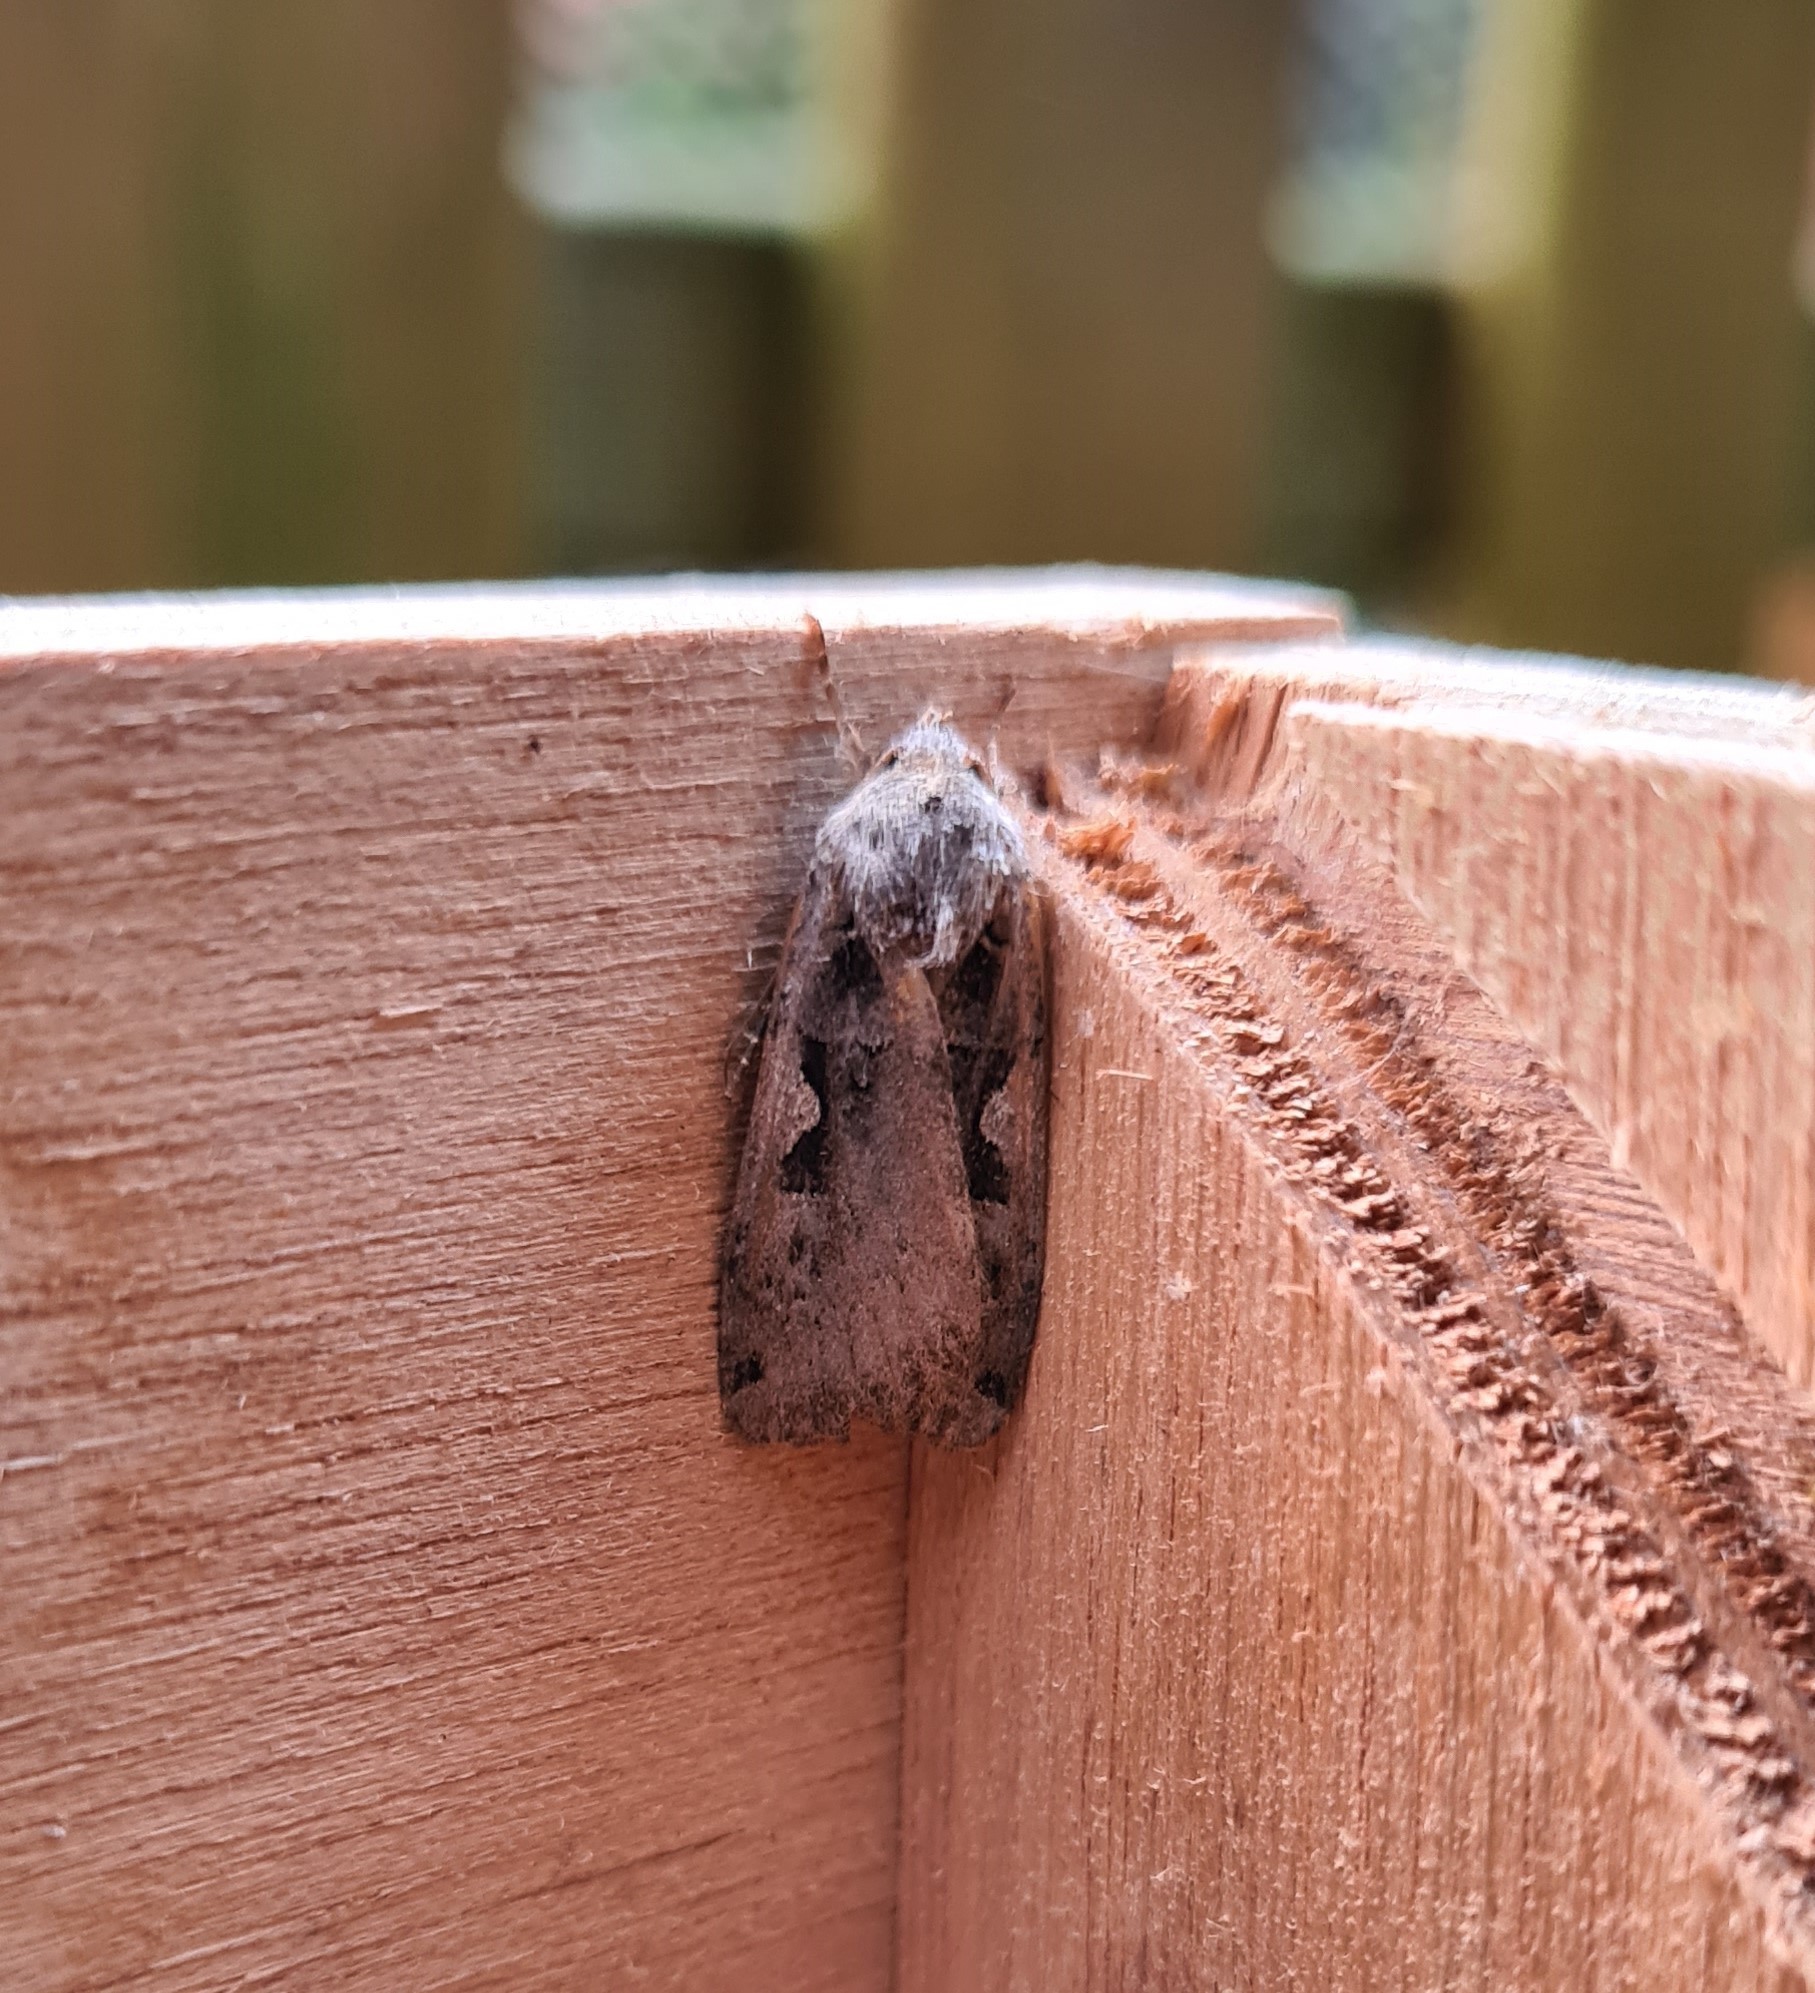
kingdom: Animalia
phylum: Arthropoda
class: Insecta
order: Lepidoptera
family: Noctuidae
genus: Xestia
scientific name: Xestia c-nigrum
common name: Setaceous hebrew character
